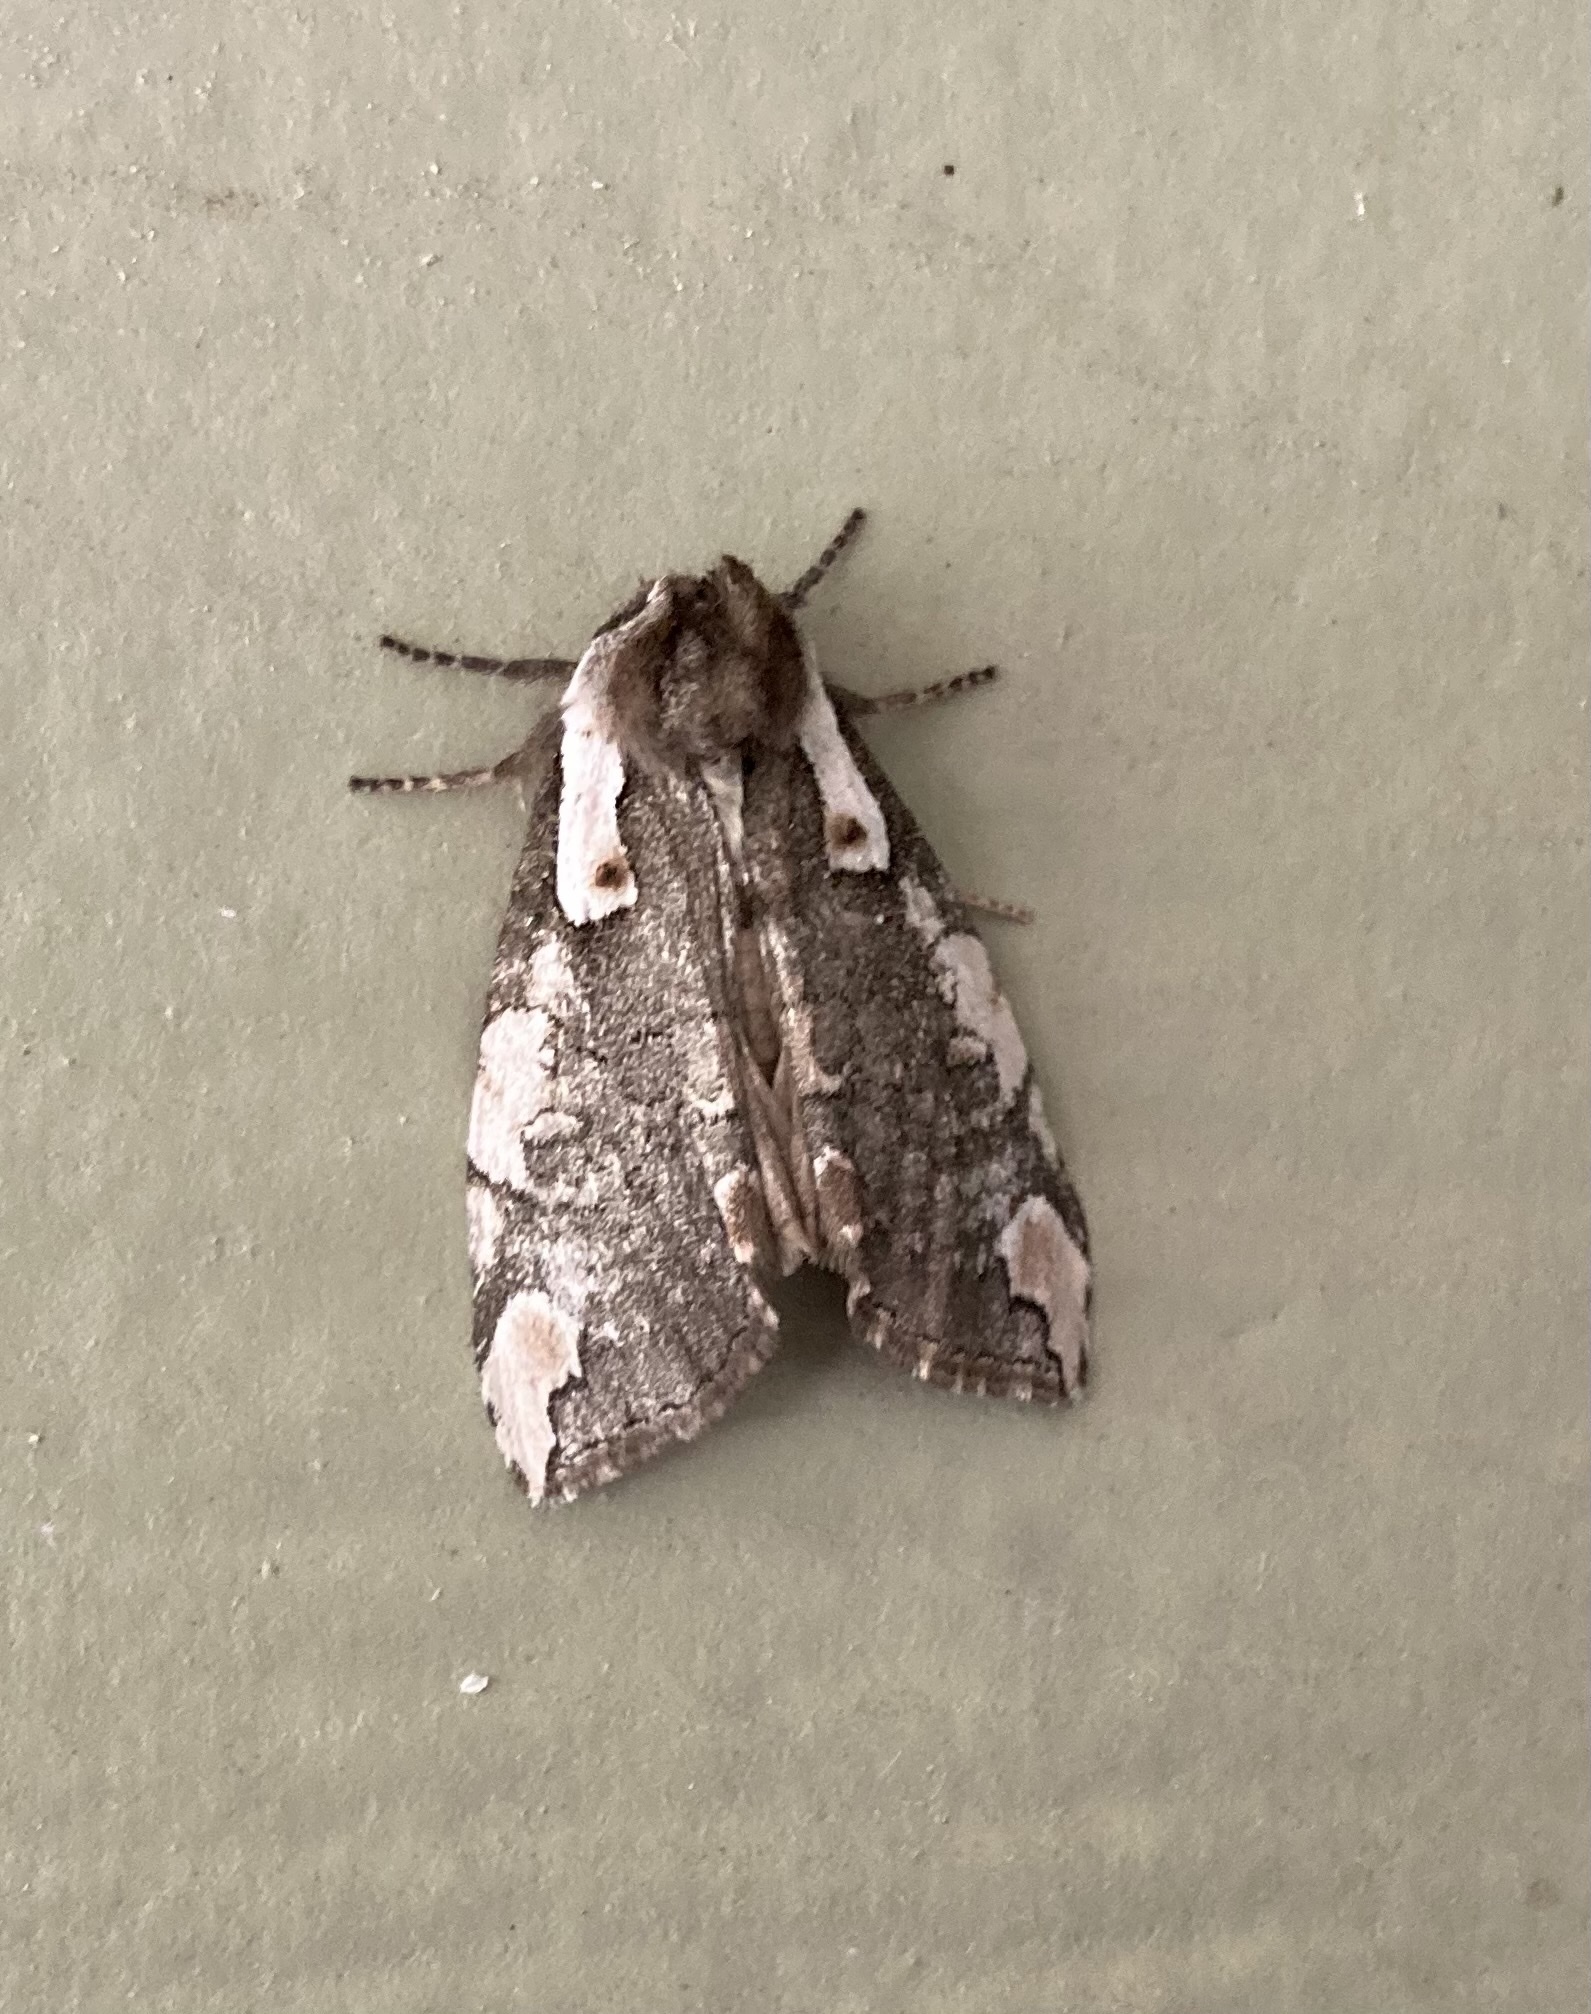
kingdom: Animalia
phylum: Arthropoda
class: Insecta
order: Lepidoptera
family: Drepanidae
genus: Euthyatira
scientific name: Euthyatira pudens
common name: Dogwood thyatirid moth
